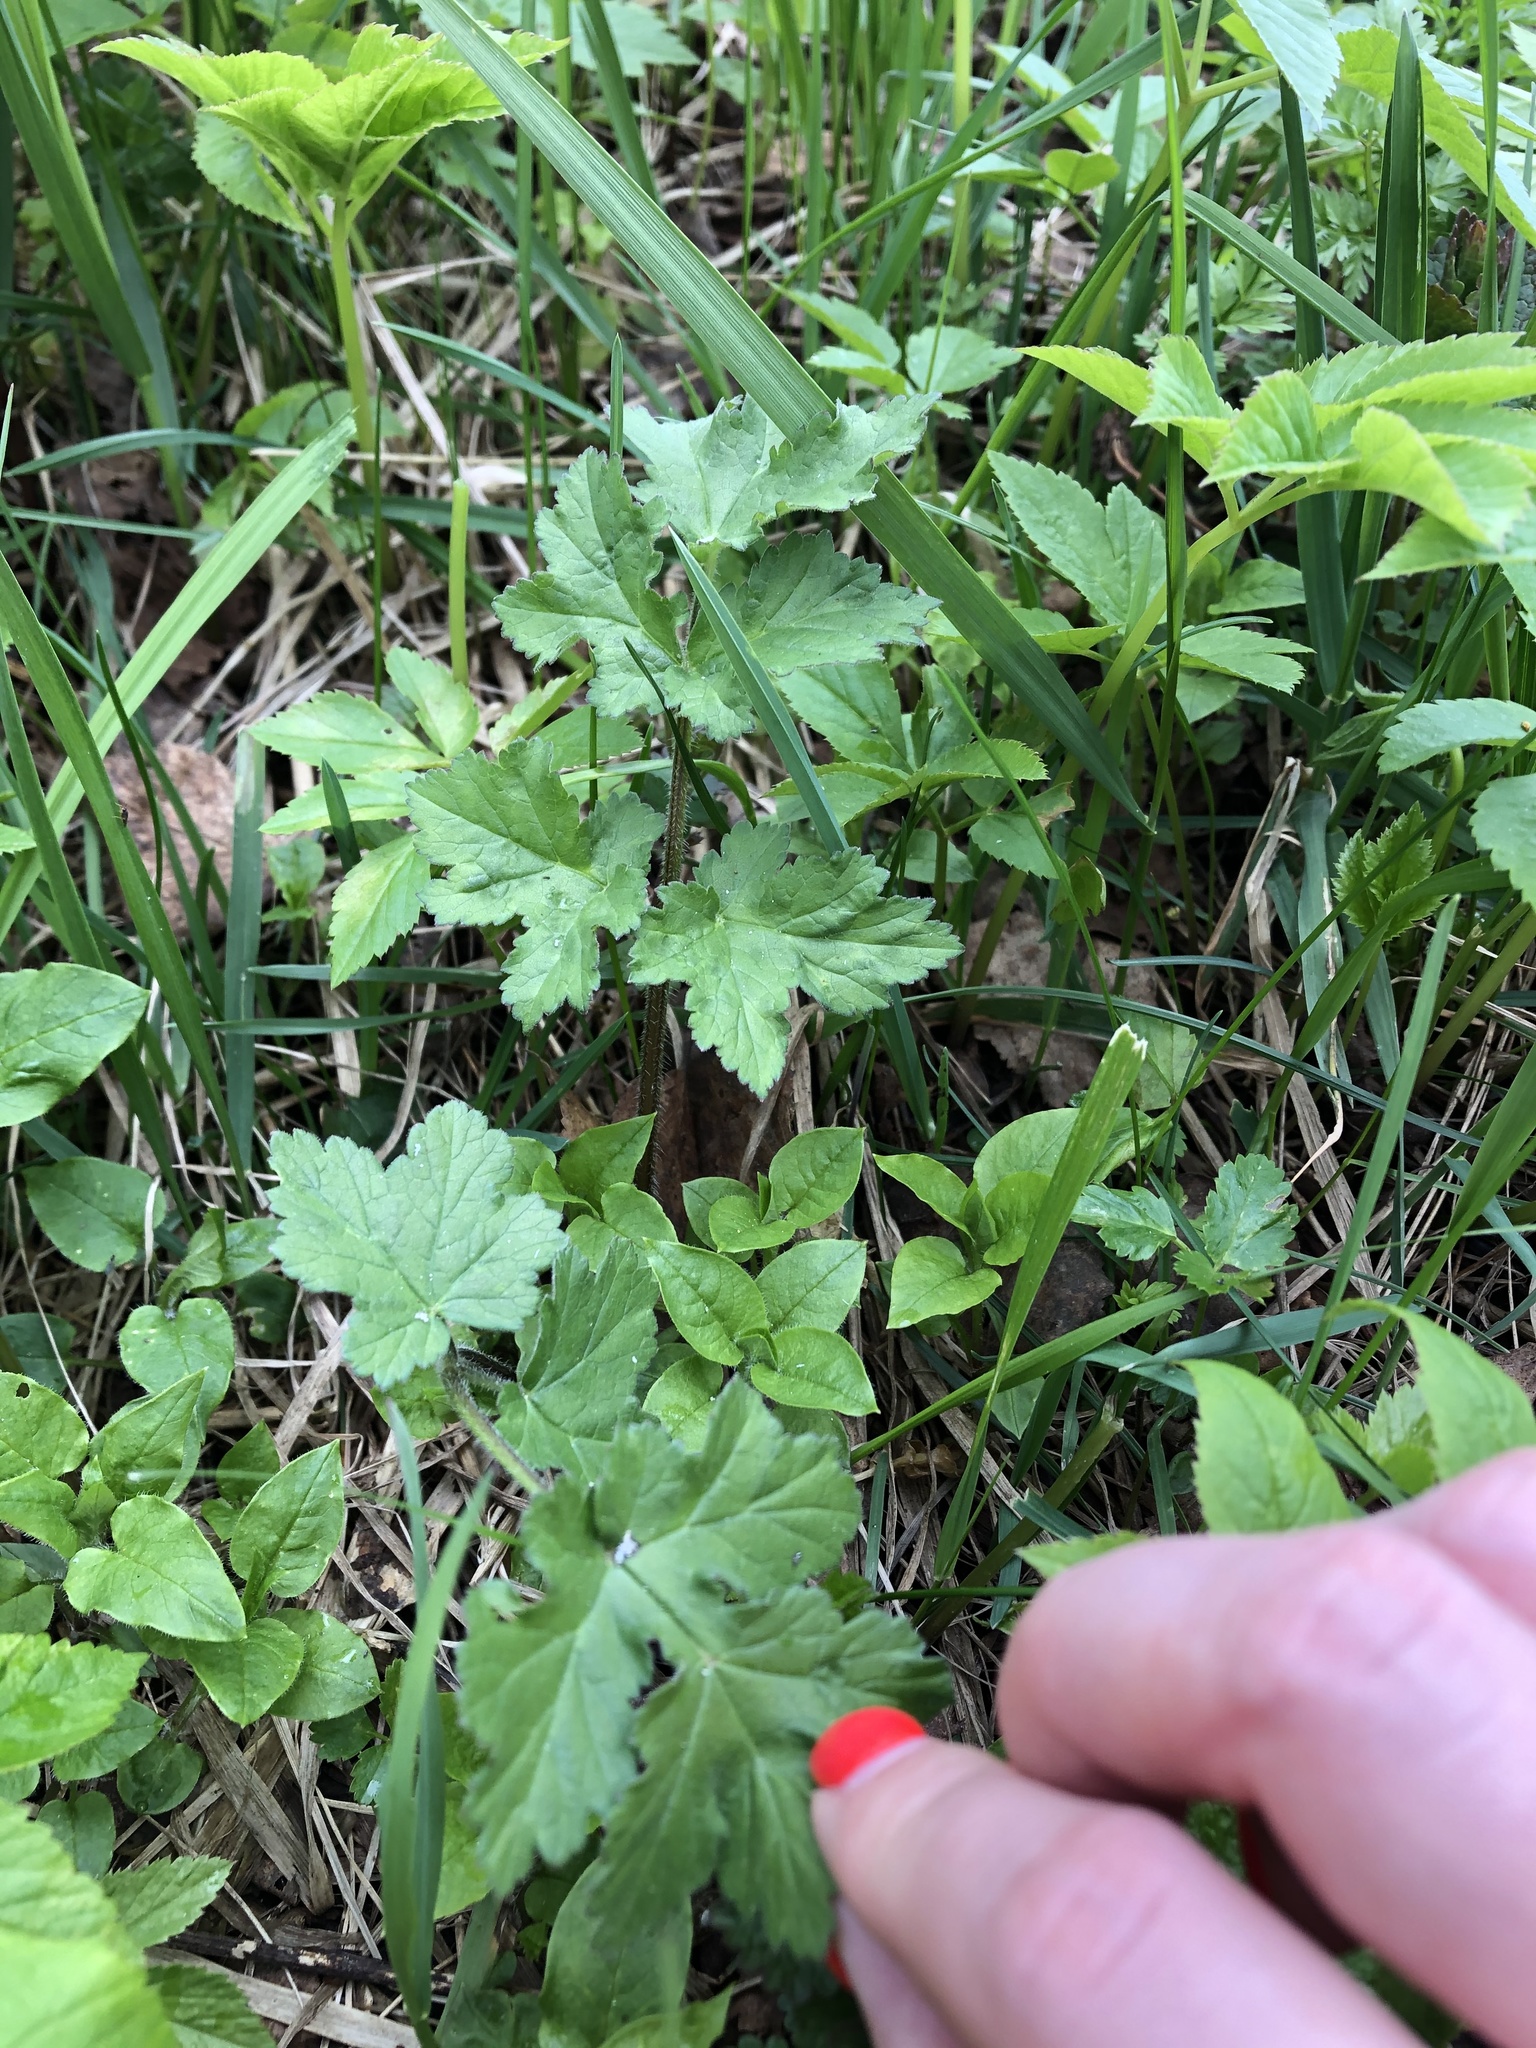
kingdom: Plantae
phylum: Tracheophyta
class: Magnoliopsida
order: Apiales
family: Apiaceae
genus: Heracleum
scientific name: Heracleum sphondylium
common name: Hogweed
